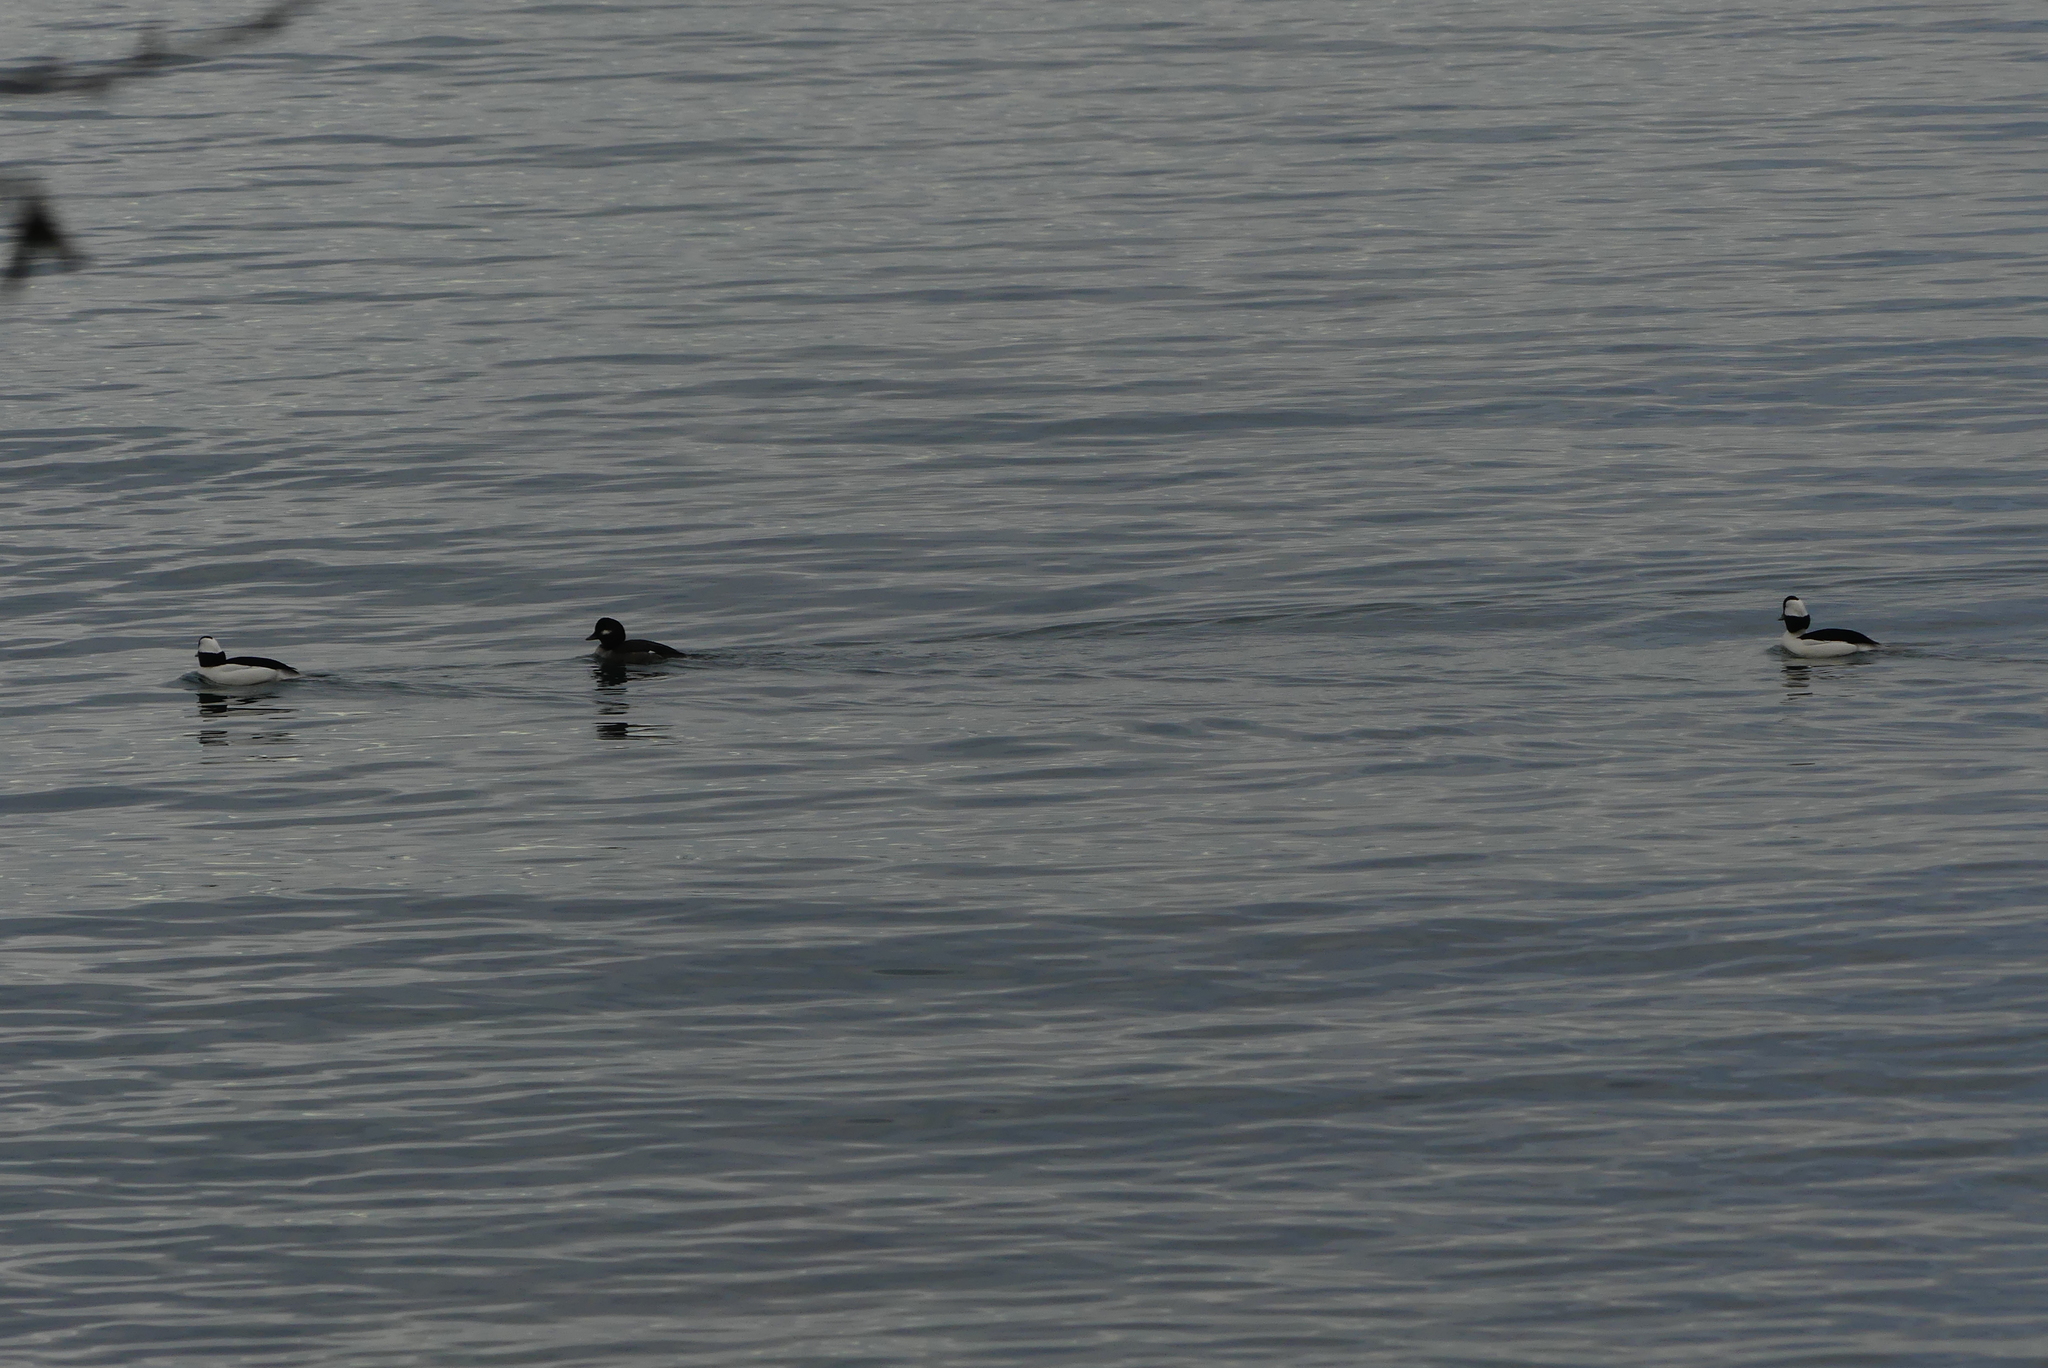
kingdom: Animalia
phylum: Chordata
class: Aves
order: Anseriformes
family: Anatidae
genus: Bucephala
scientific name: Bucephala albeola
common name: Bufflehead
